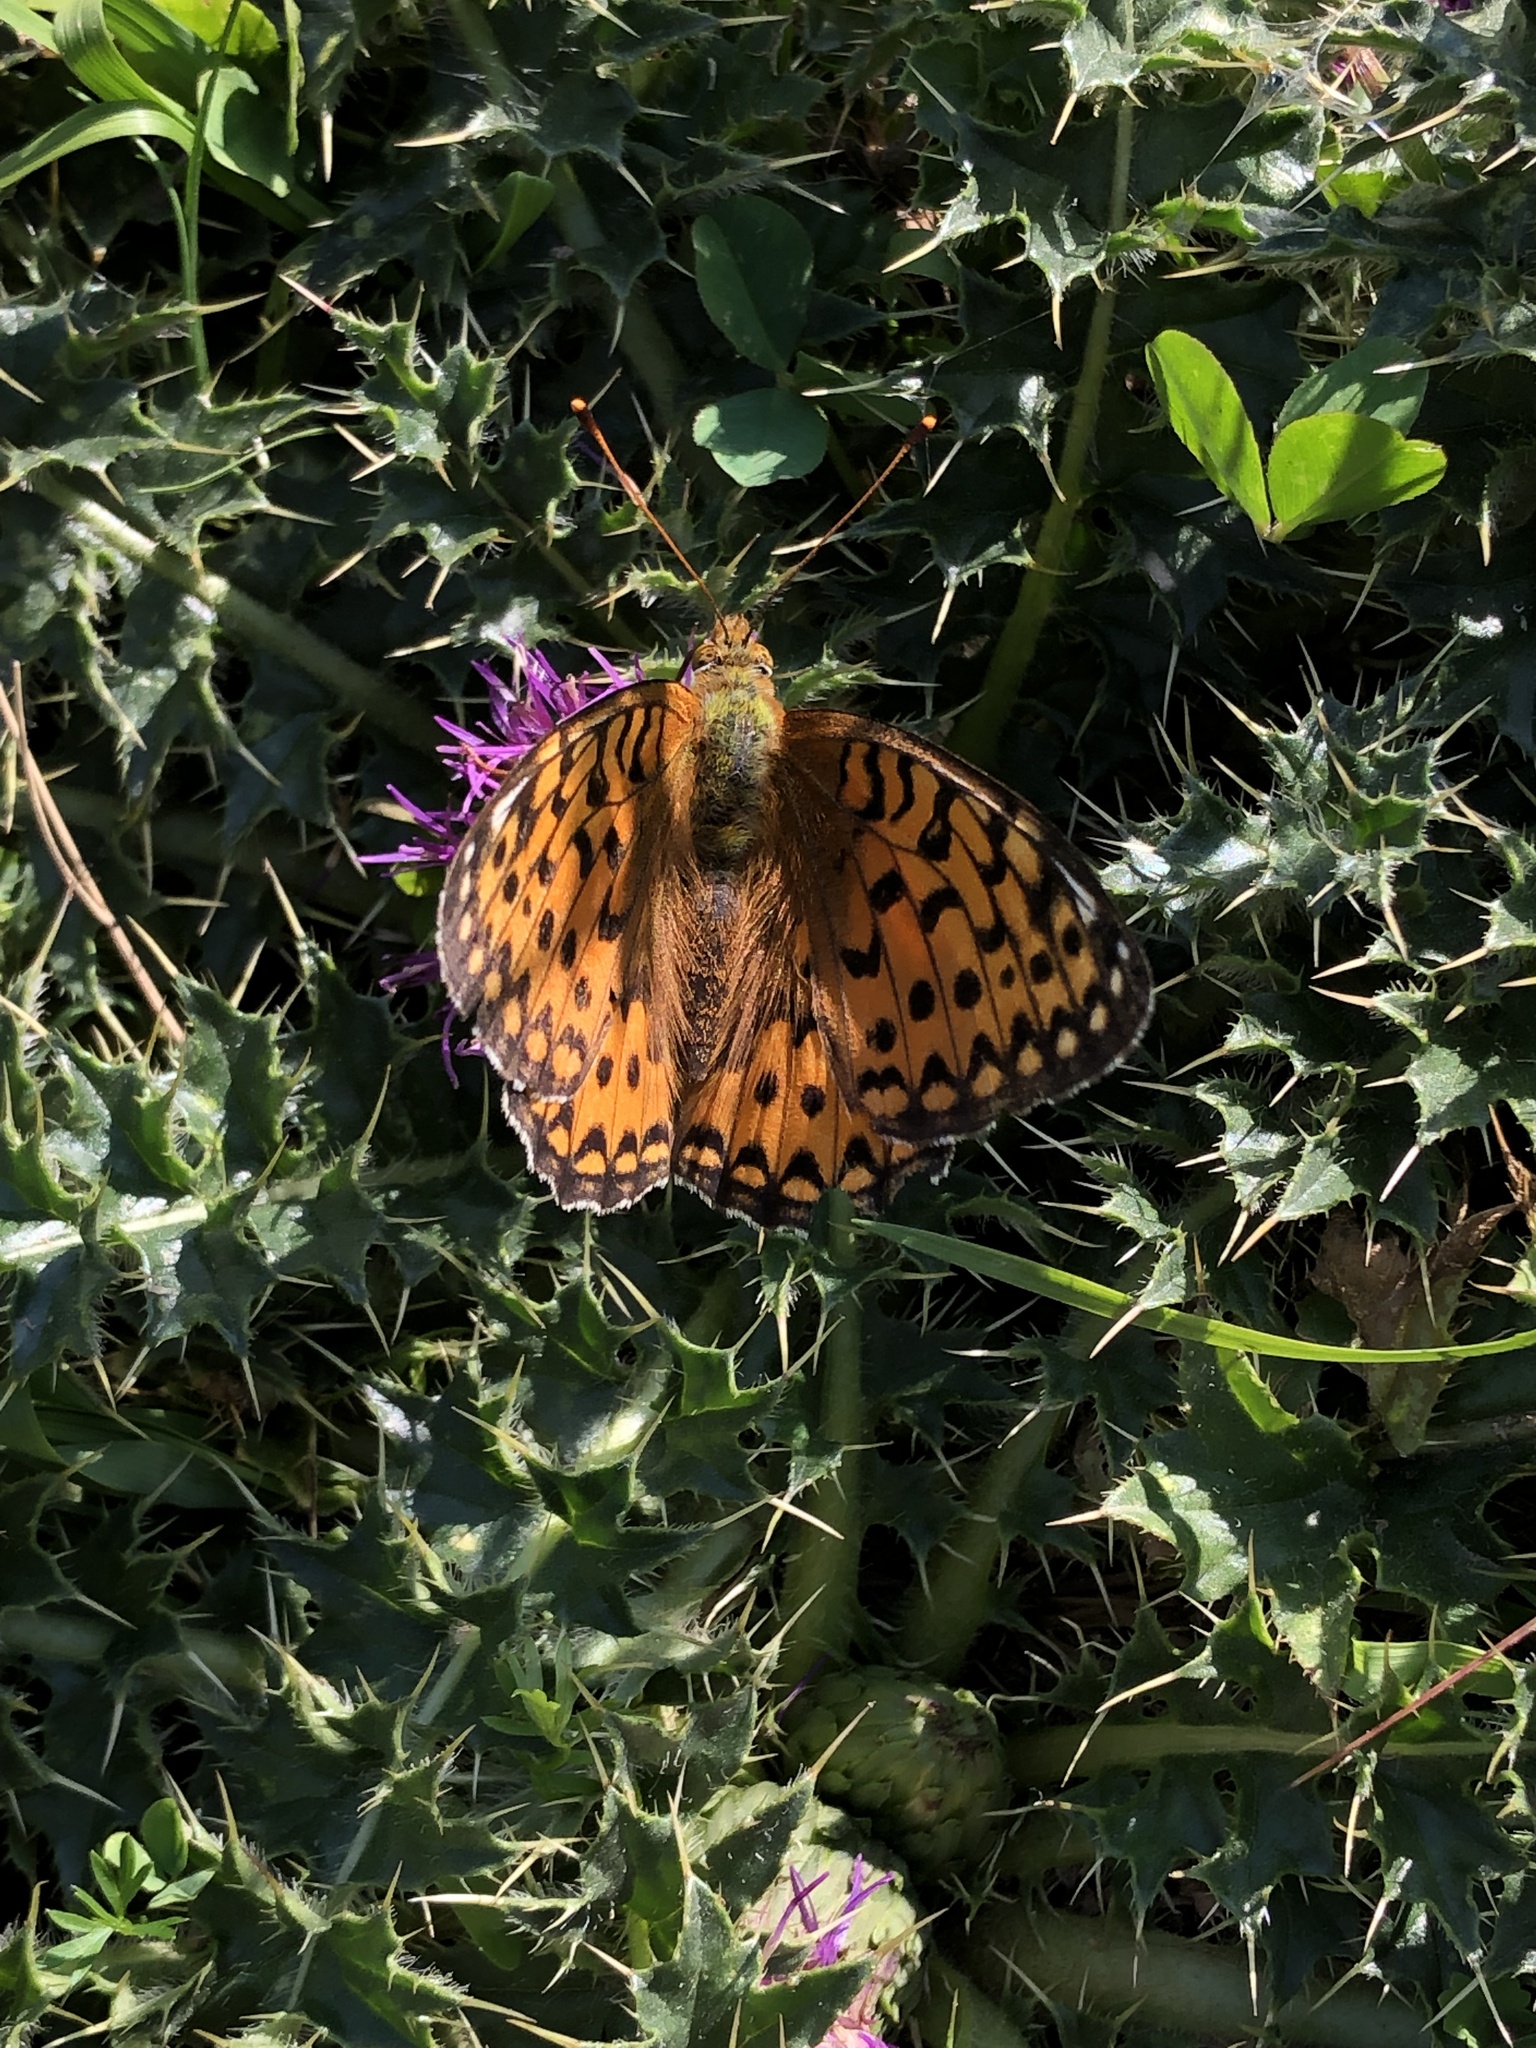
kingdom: Animalia
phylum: Arthropoda
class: Insecta
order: Lepidoptera
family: Nymphalidae
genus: Speyeria
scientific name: Speyeria aglaja
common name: Dark green fritillary
